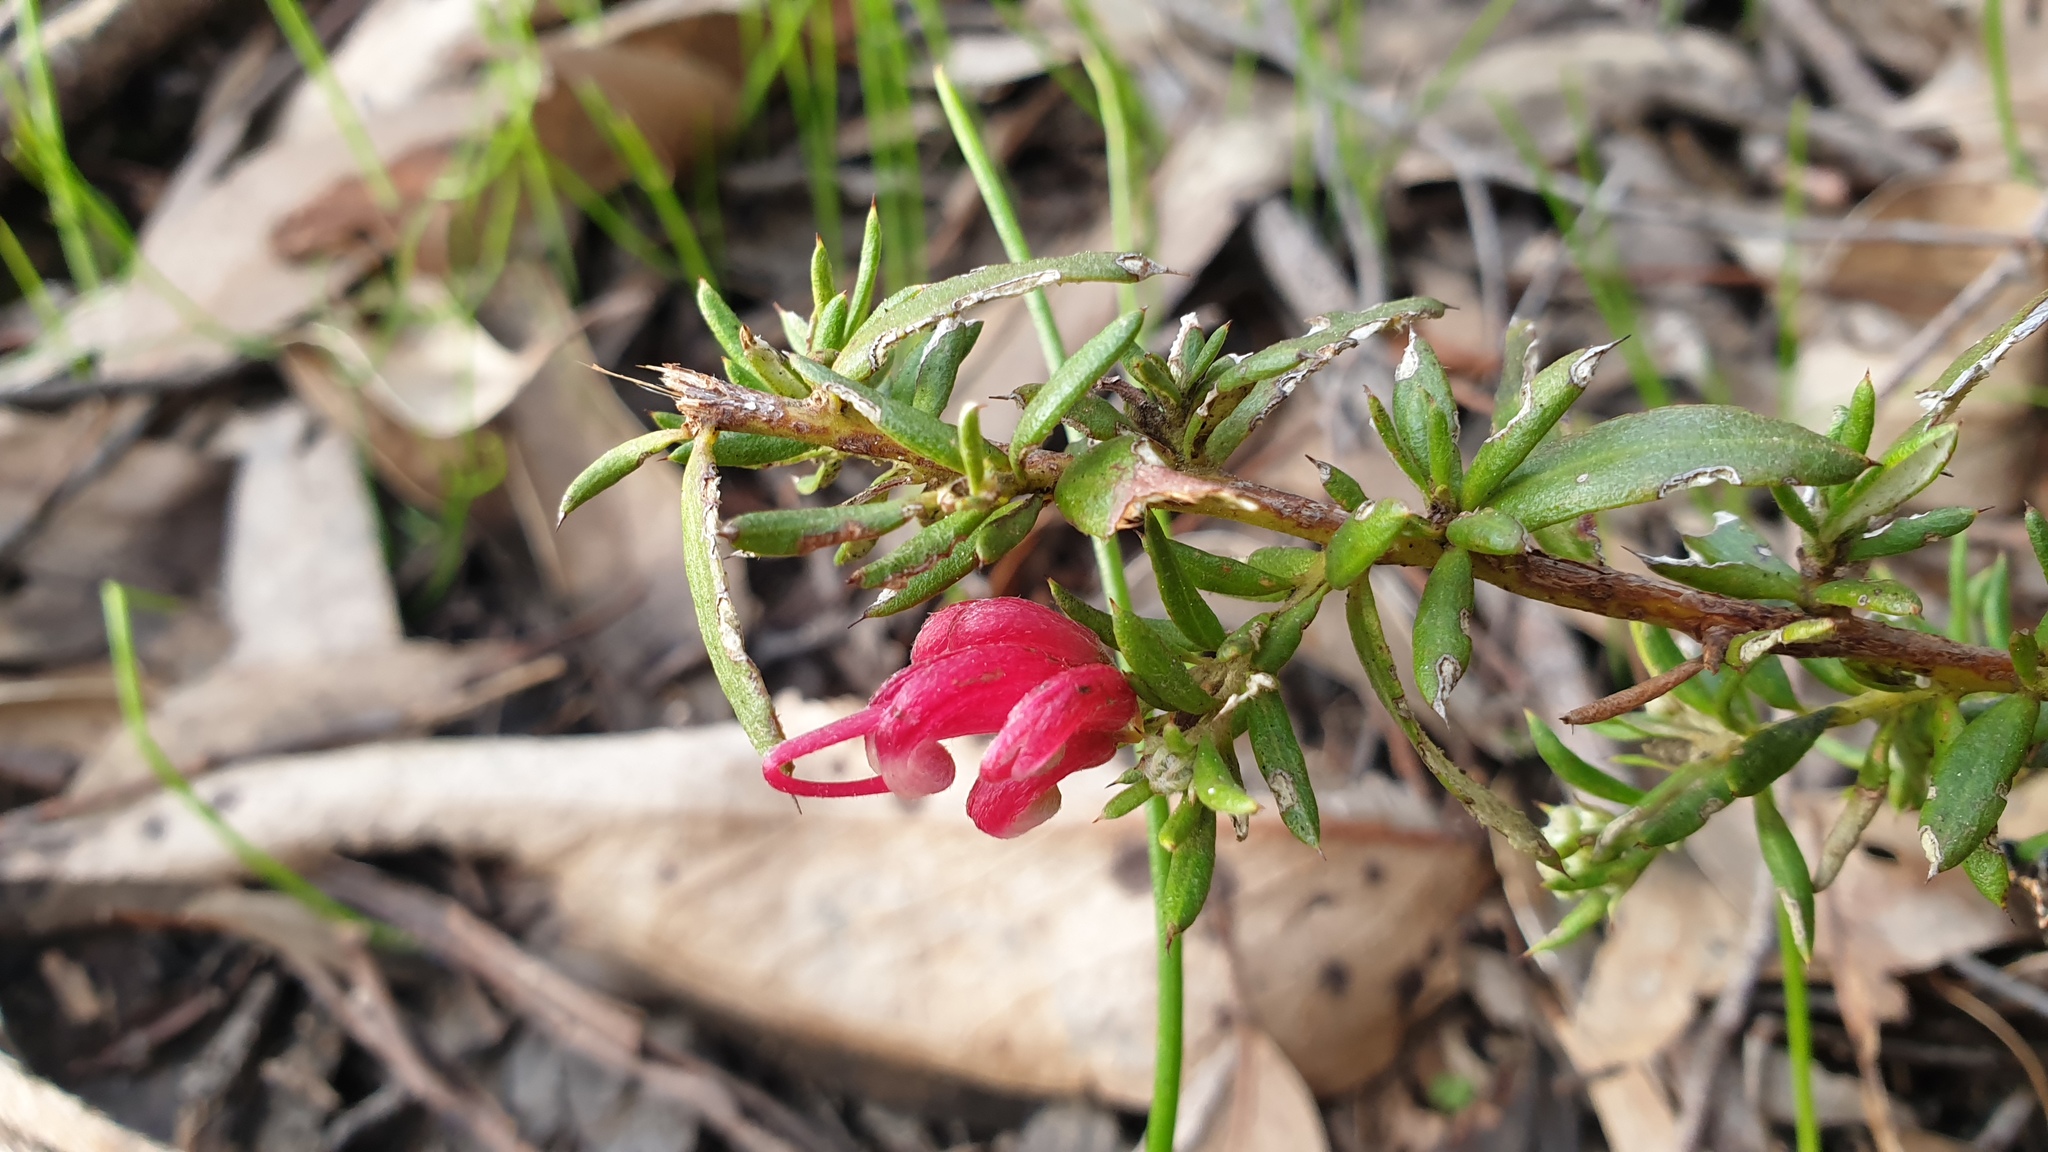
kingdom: Plantae
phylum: Tracheophyta
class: Magnoliopsida
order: Proteales
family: Proteaceae
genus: Grevillea
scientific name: Grevillea lavandulacea
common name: Lavender grevillea
